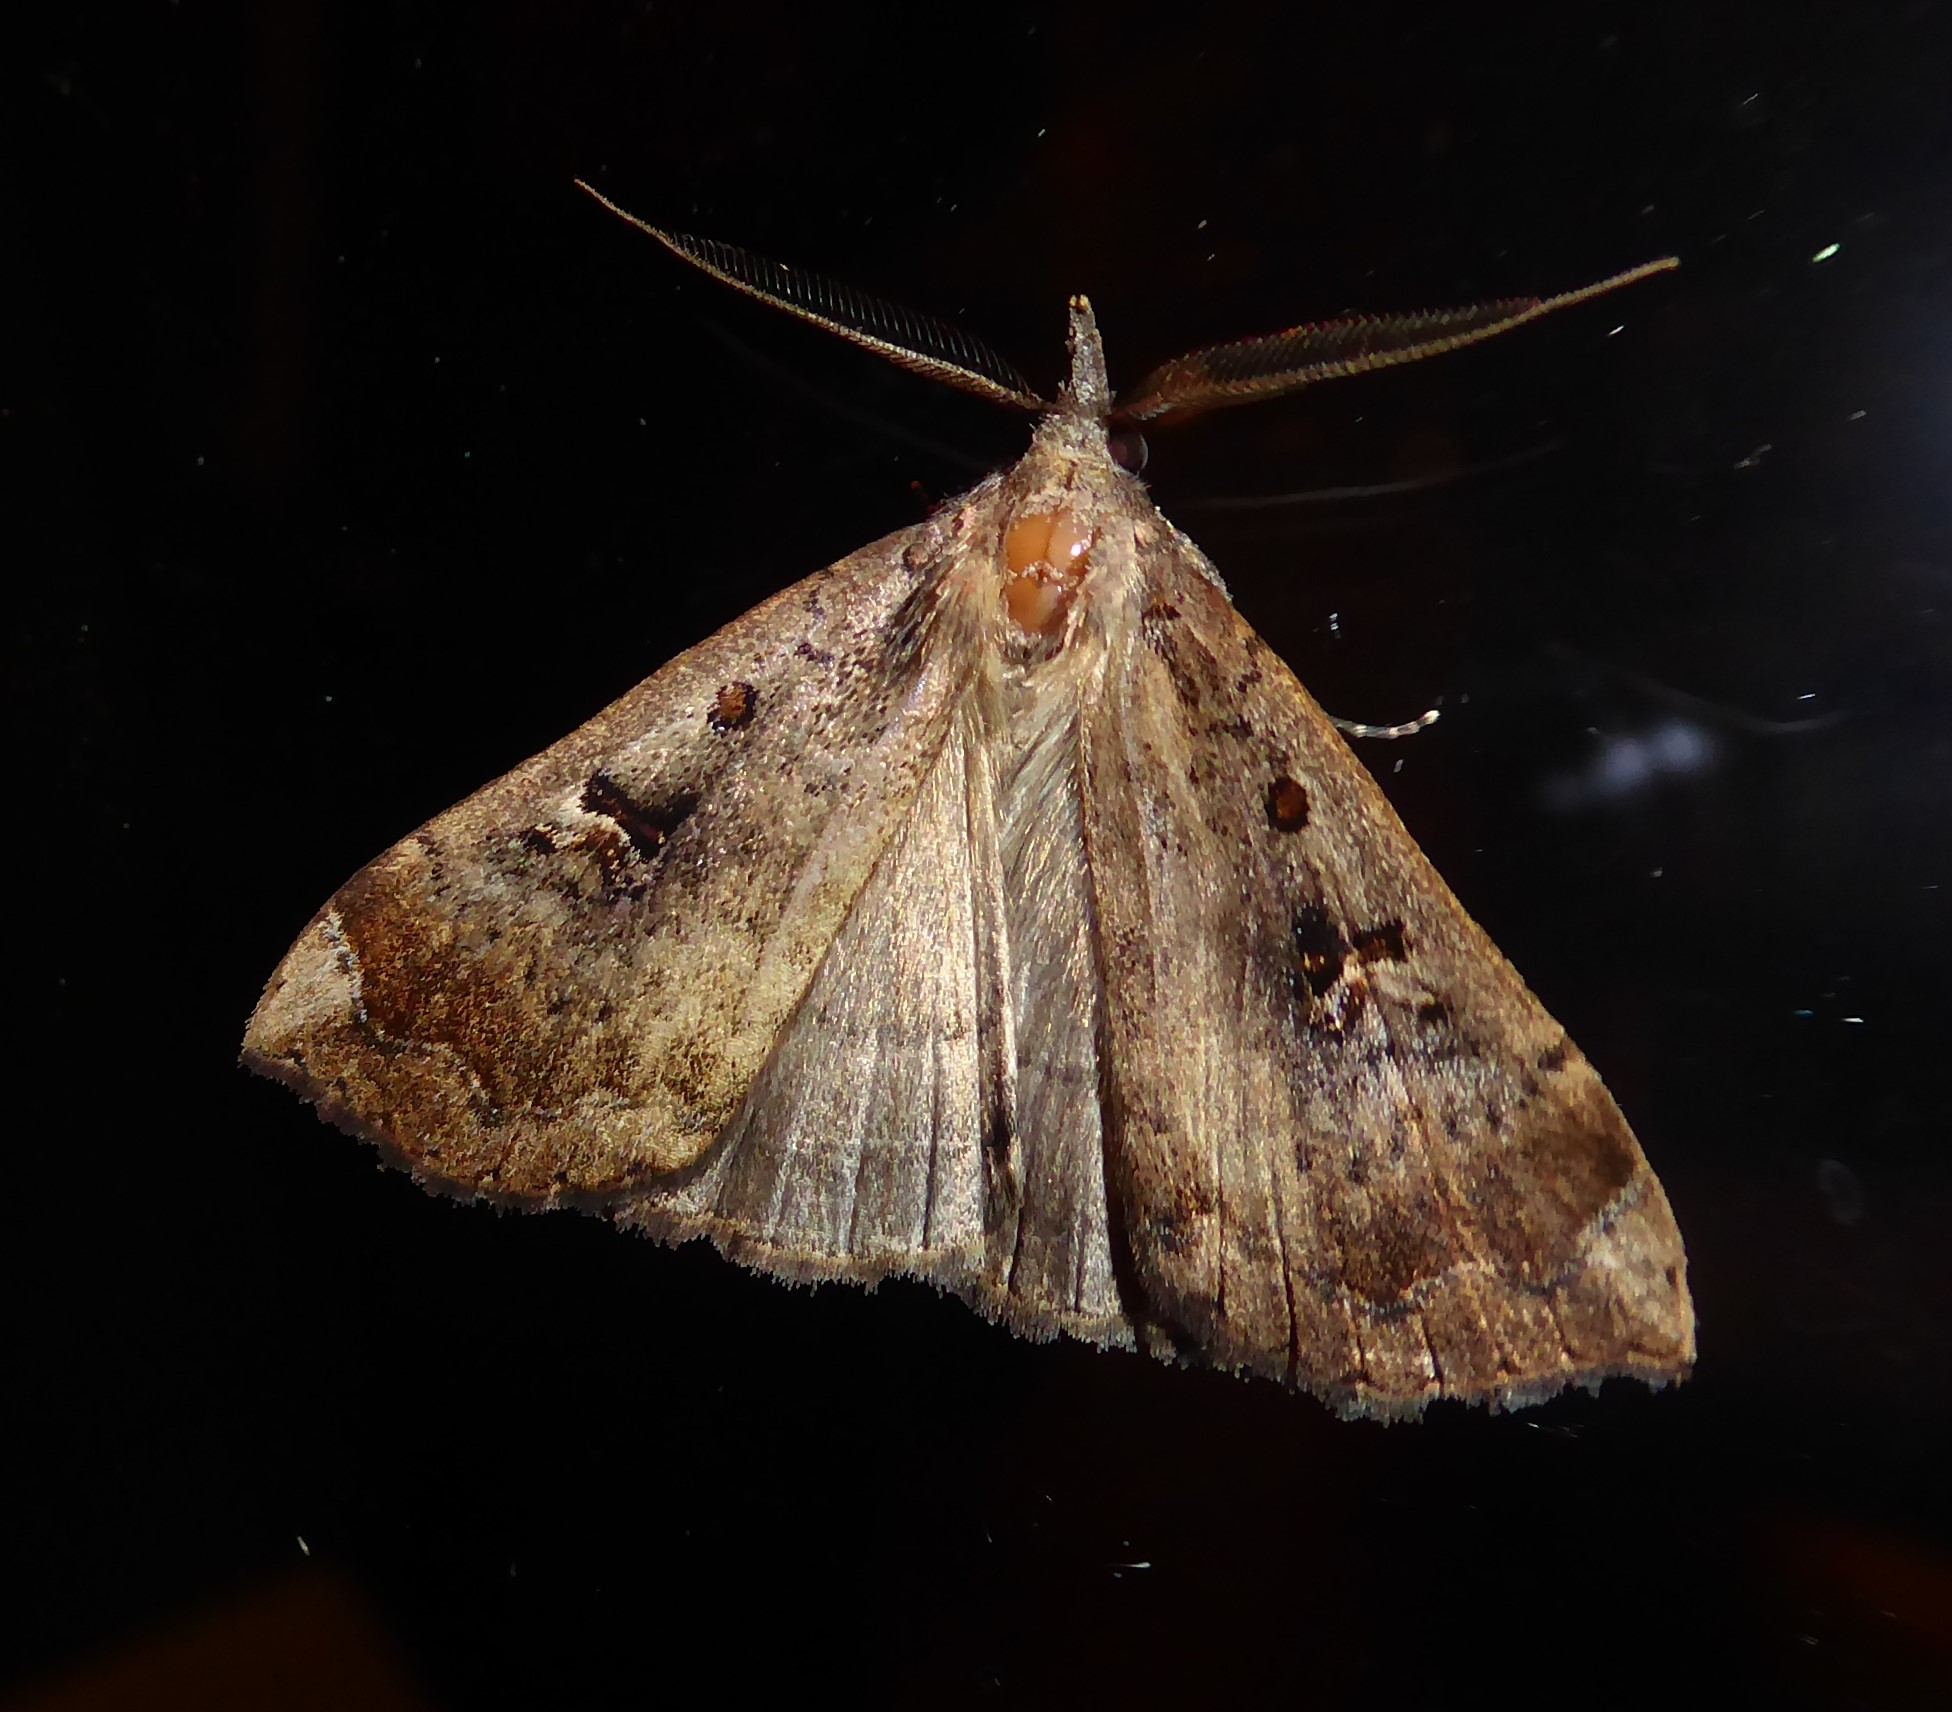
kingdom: Animalia
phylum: Arthropoda
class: Insecta
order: Lepidoptera
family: Erebidae
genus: Rhapsa
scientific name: Rhapsa scotosialis
